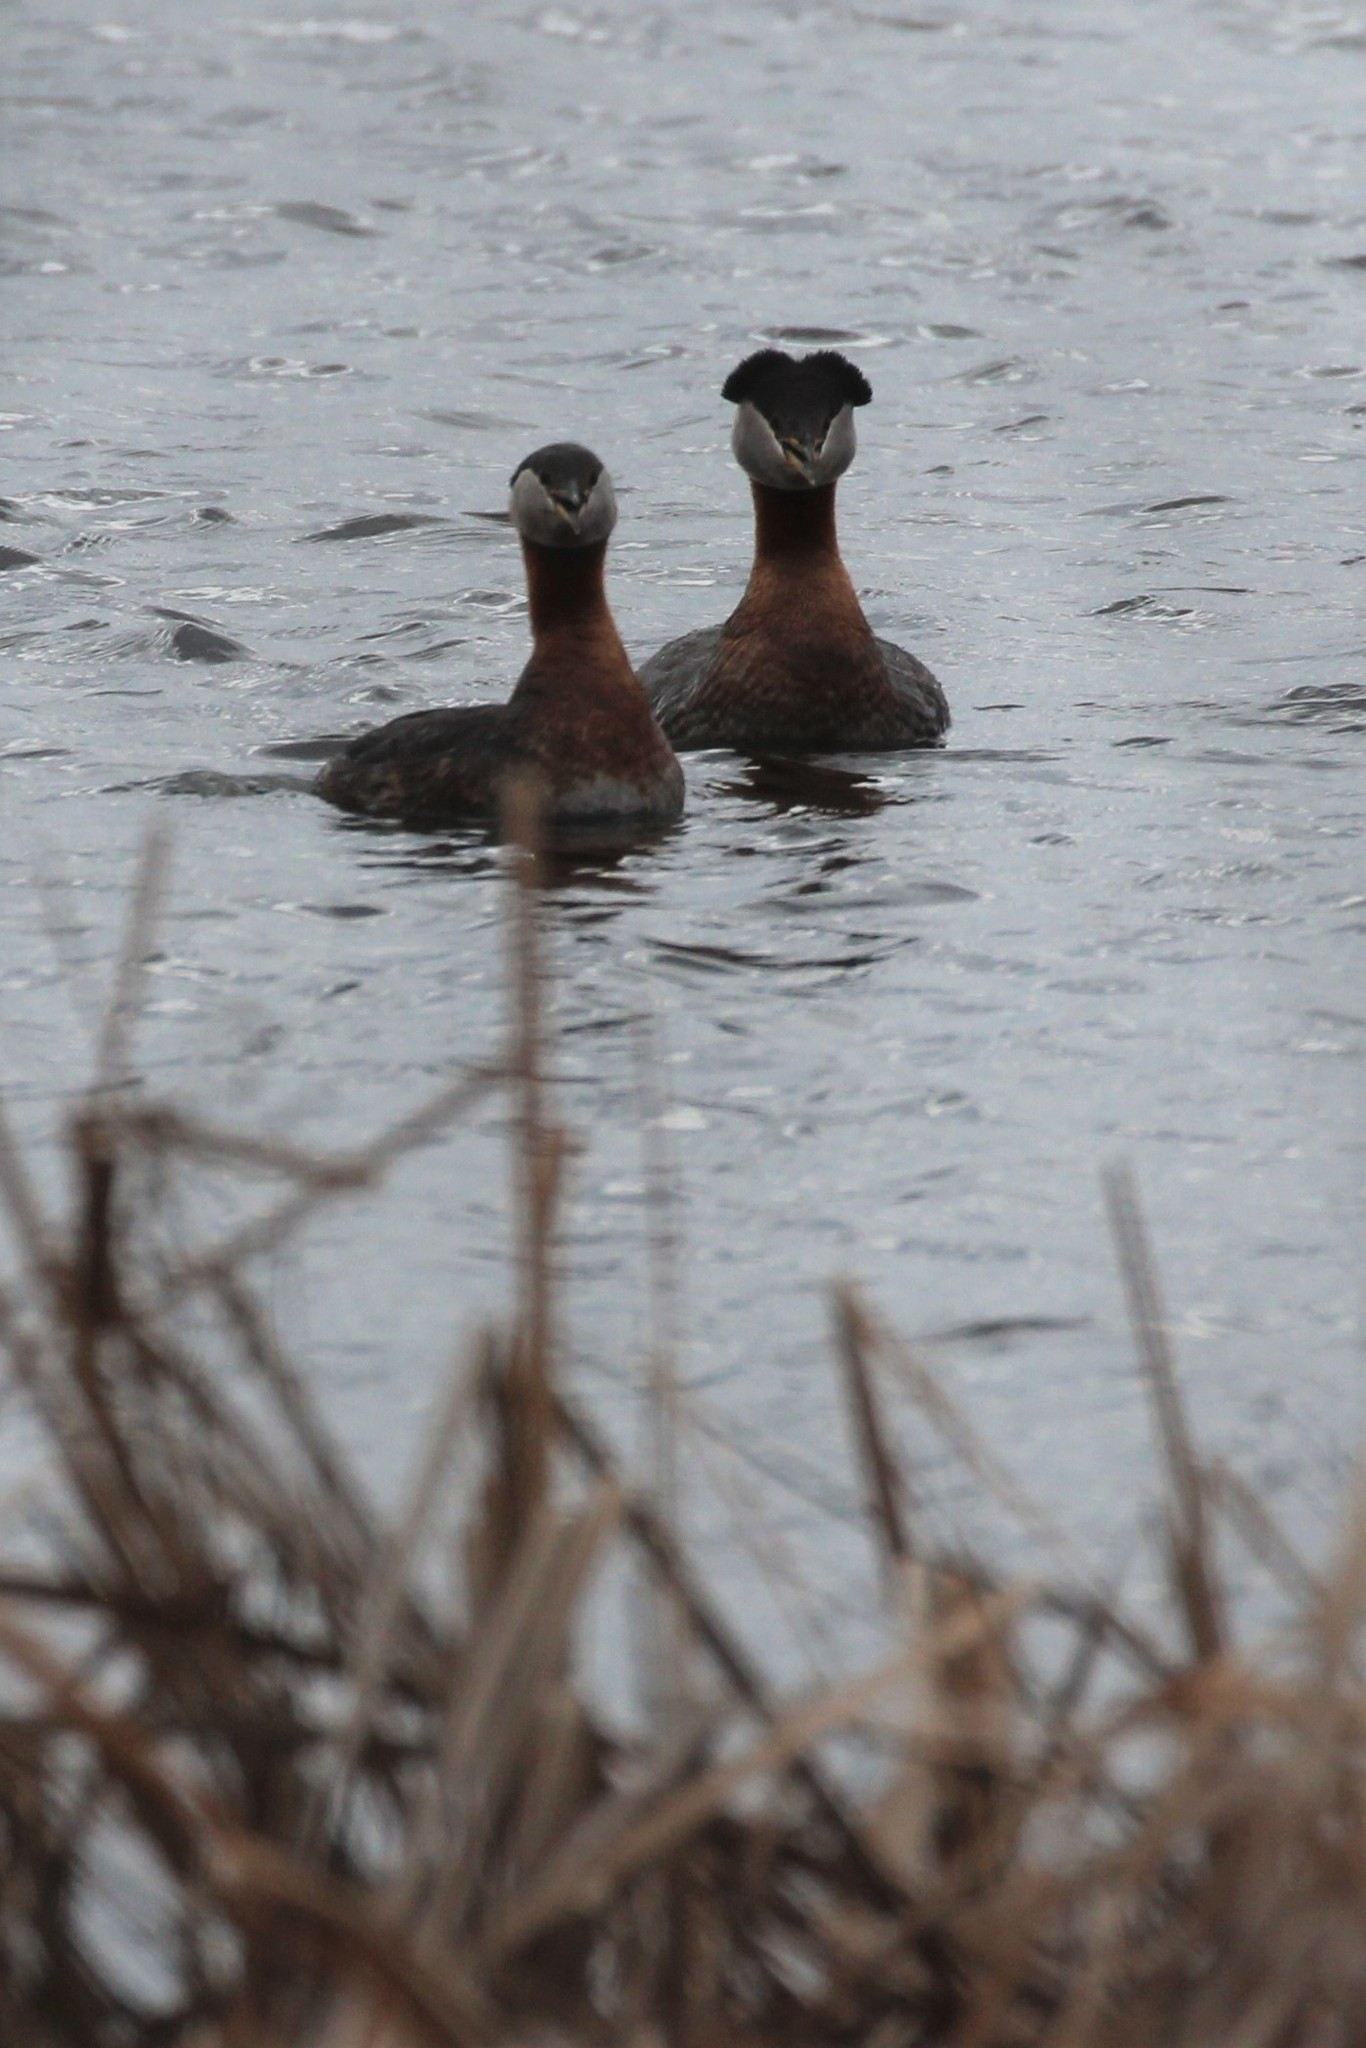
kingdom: Animalia
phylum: Chordata
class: Aves
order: Podicipediformes
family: Podicipedidae
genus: Podiceps
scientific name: Podiceps grisegena
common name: Red-necked grebe
